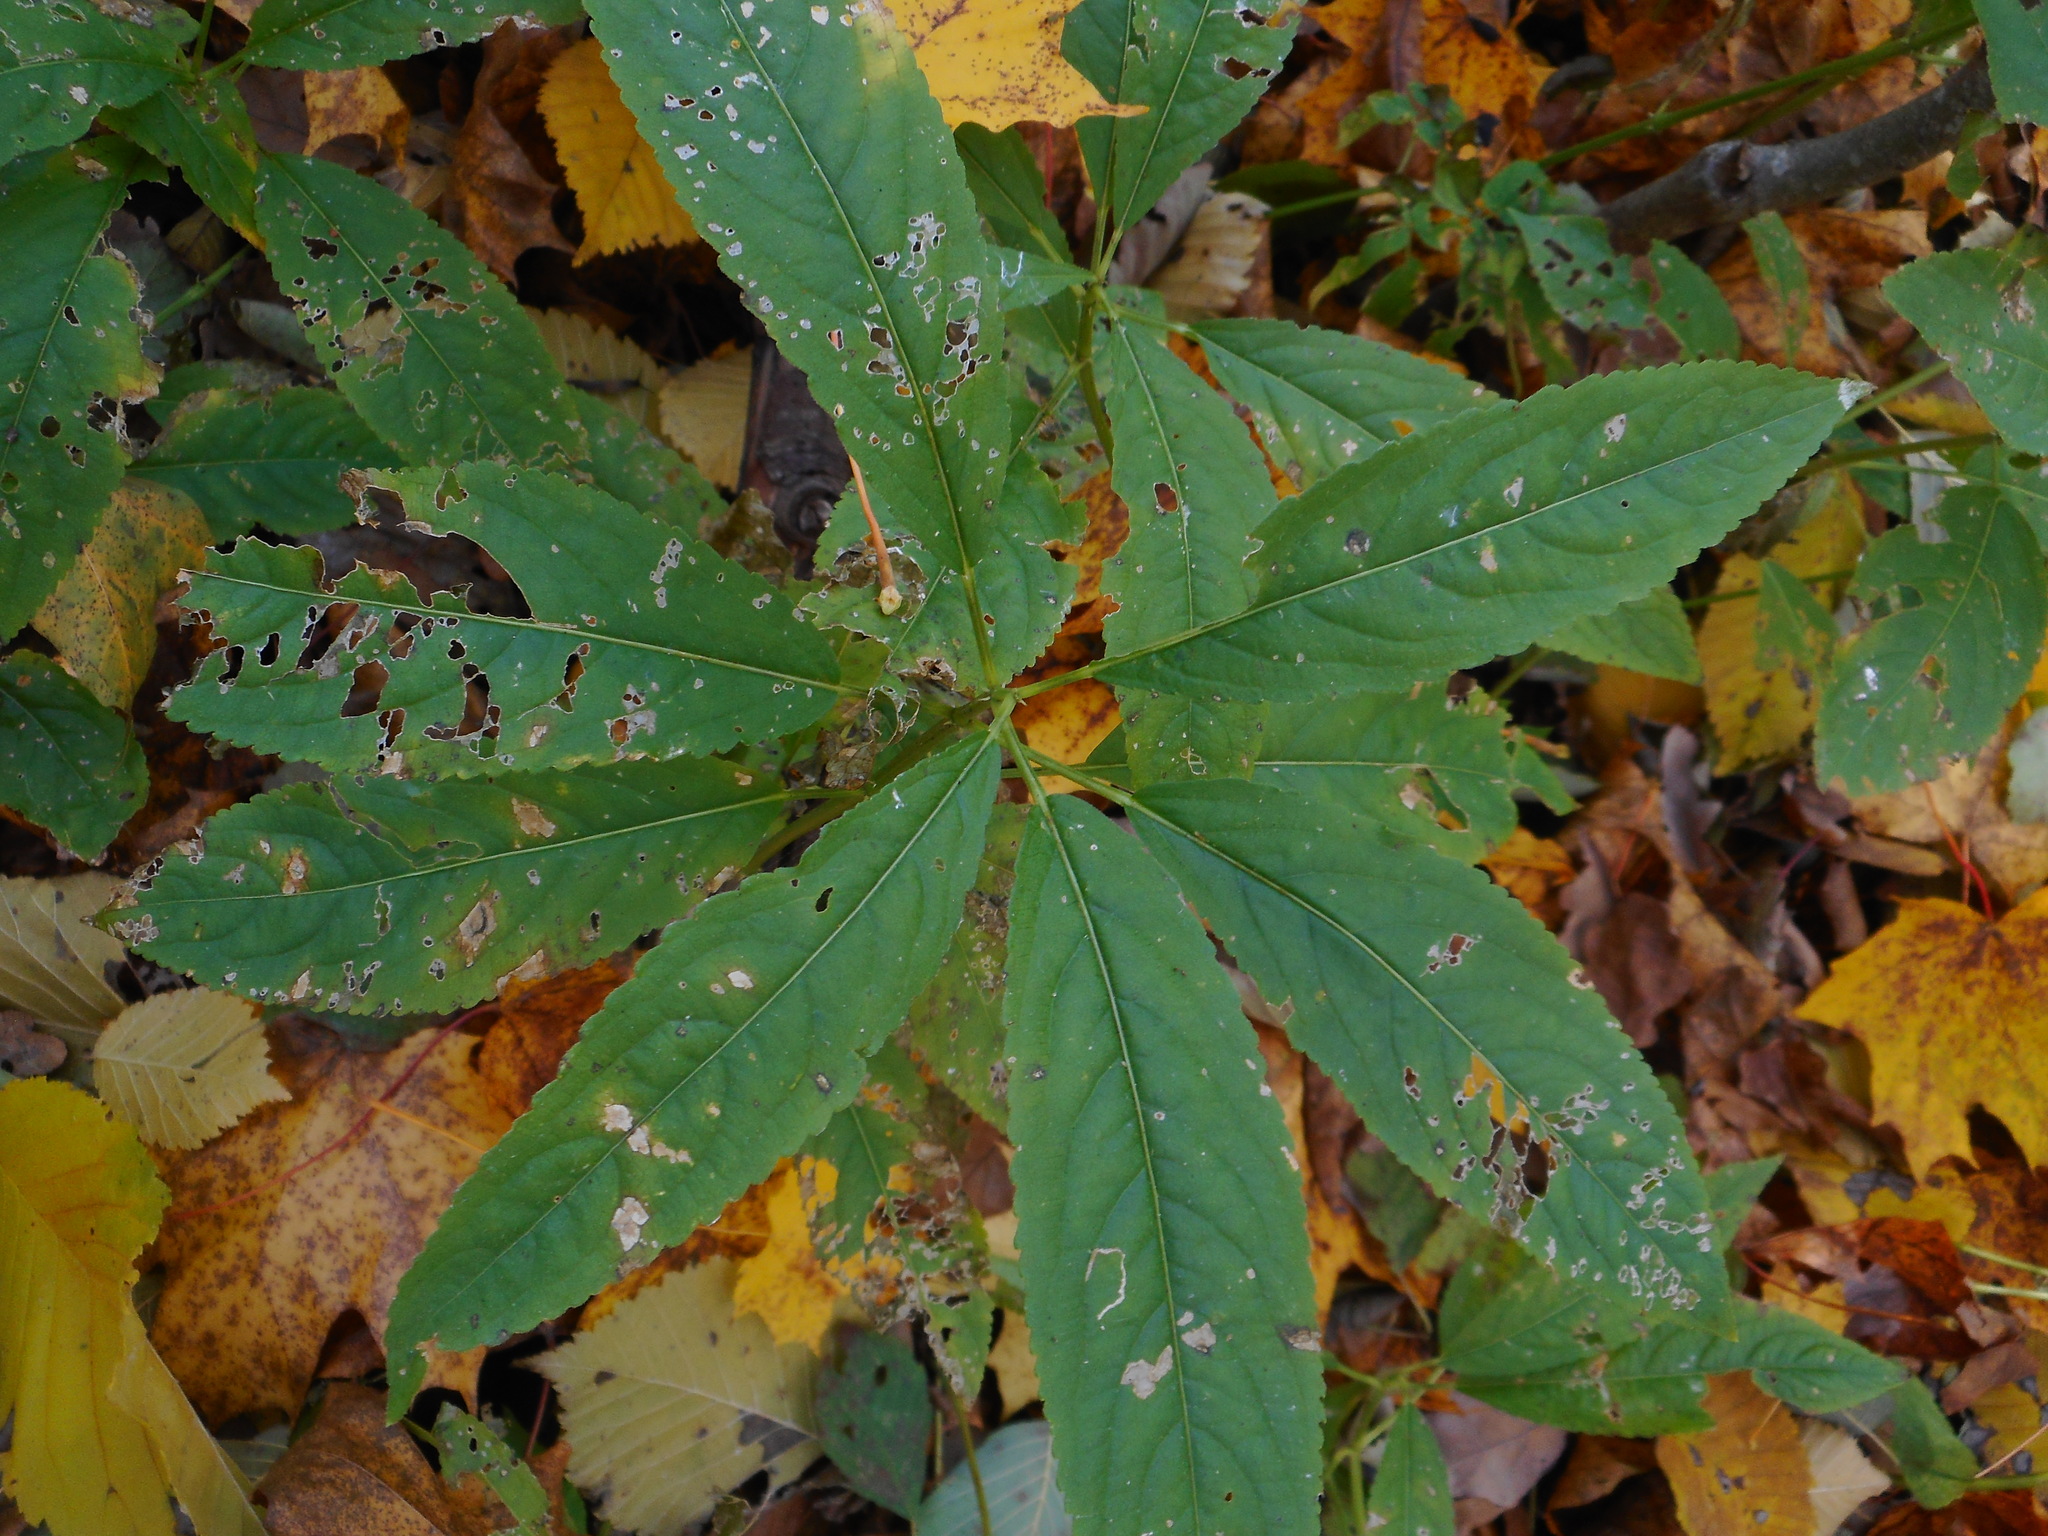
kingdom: Plantae
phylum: Tracheophyta
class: Magnoliopsida
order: Malpighiales
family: Euphorbiaceae
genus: Mercurialis
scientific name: Mercurialis perennis
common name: Dog mercury
